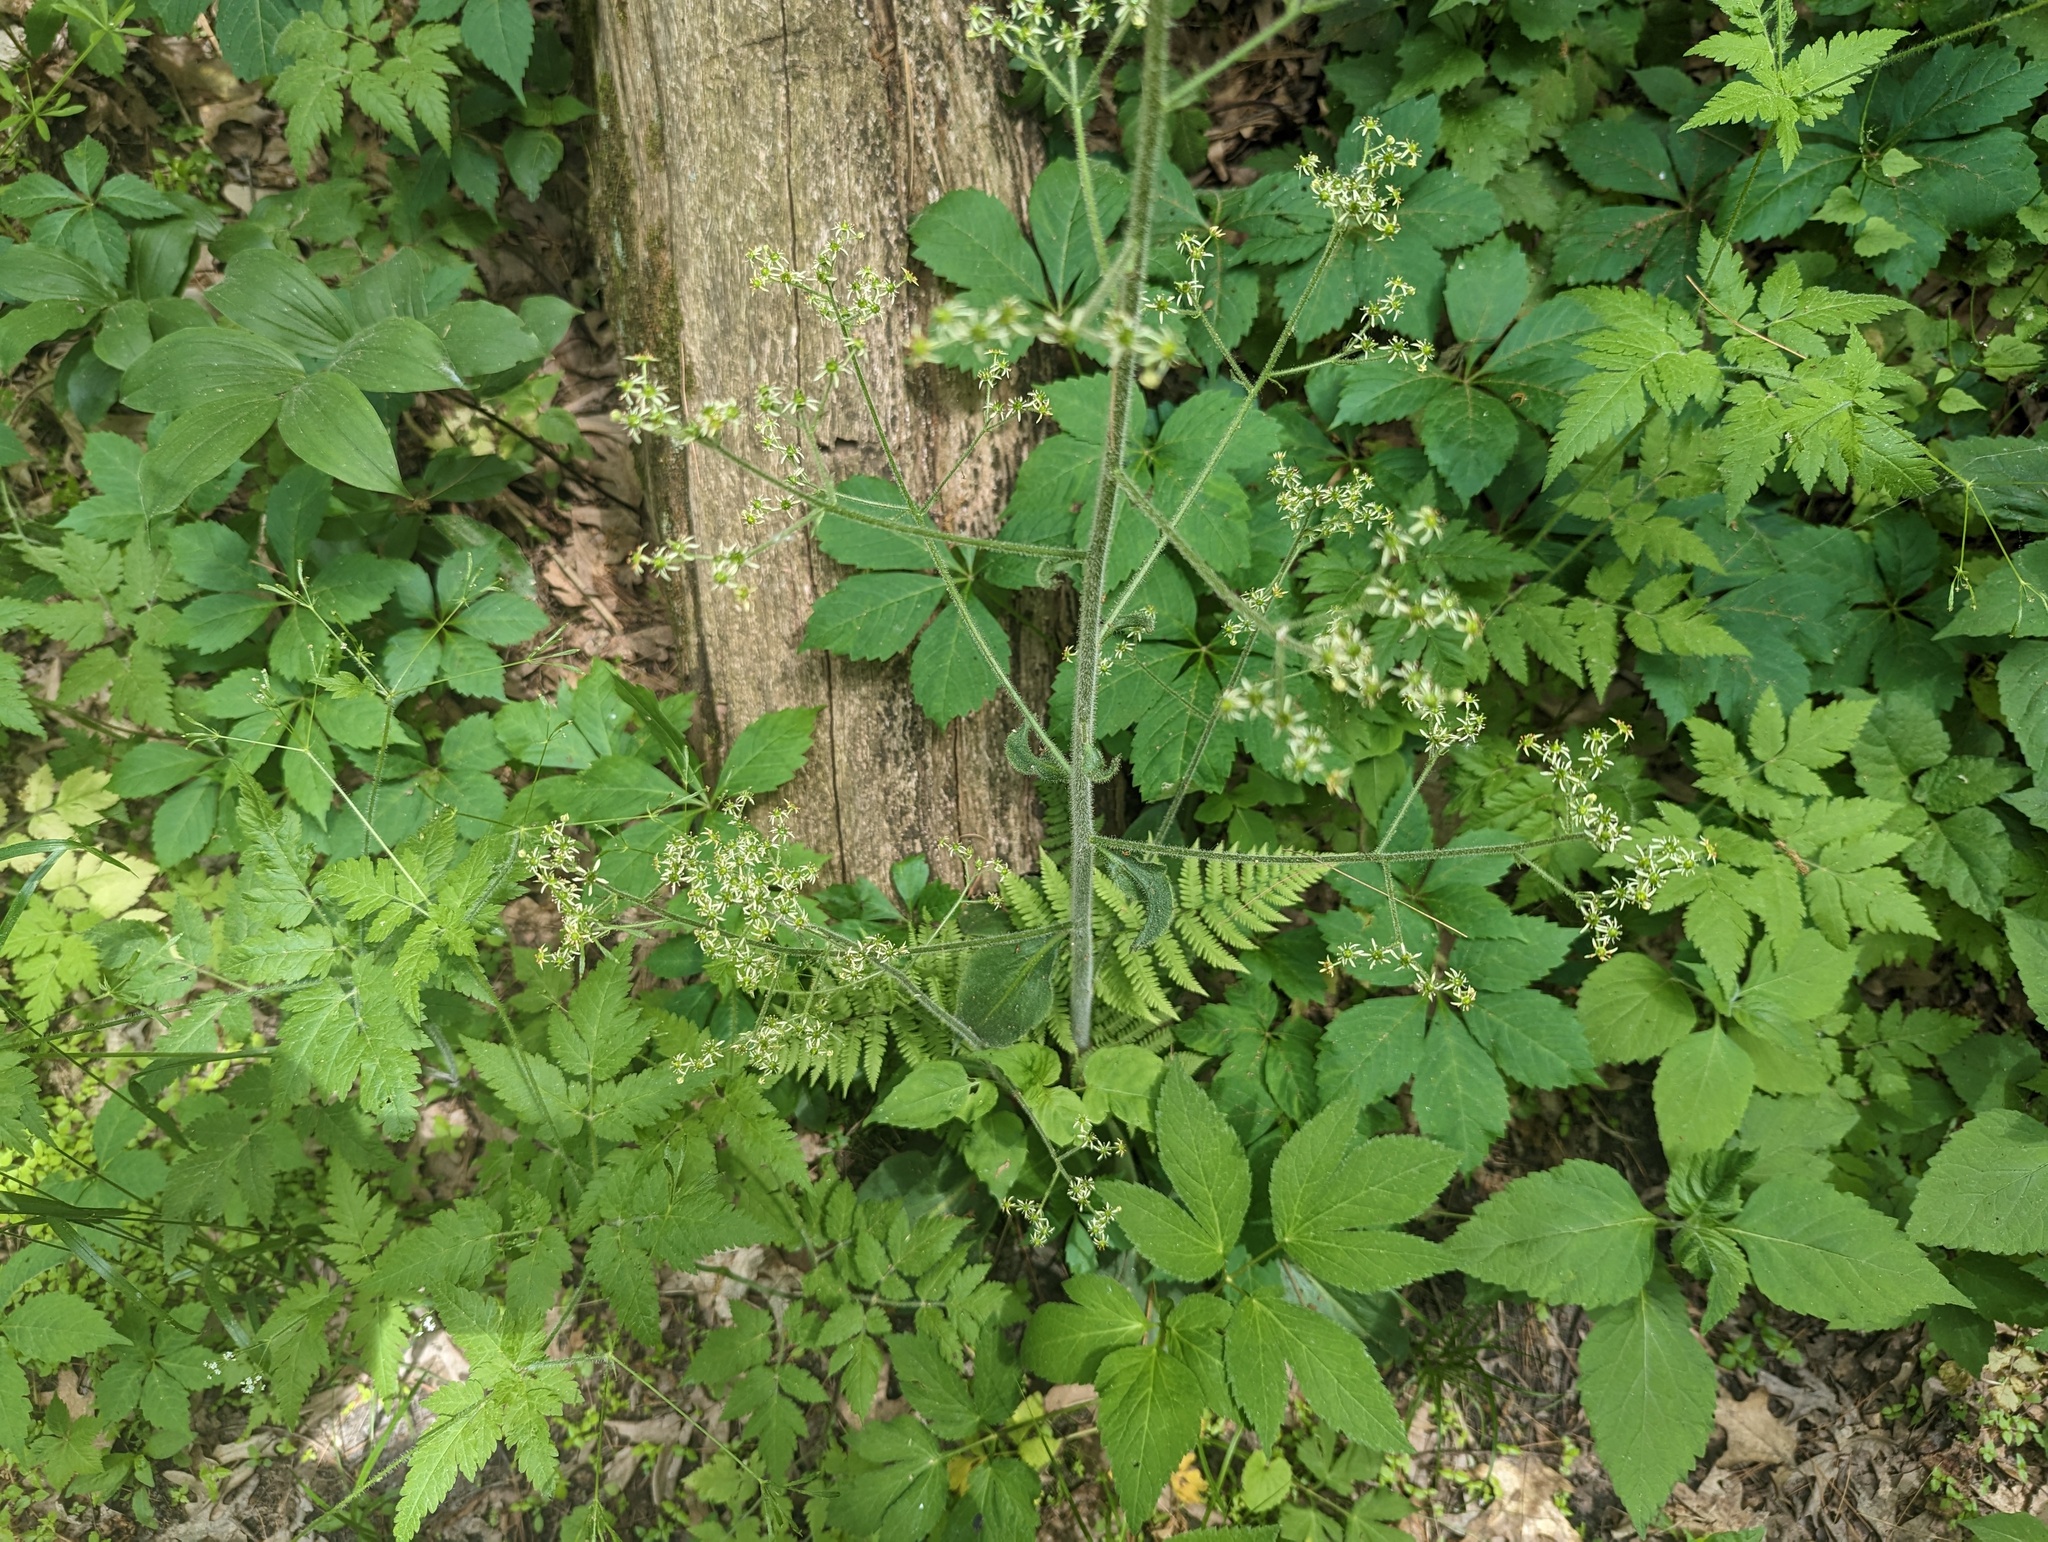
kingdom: Plantae
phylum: Tracheophyta
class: Magnoliopsida
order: Saxifragales
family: Saxifragaceae
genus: Micranthes
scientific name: Micranthes pensylvanica
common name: Marsh saxifrage
